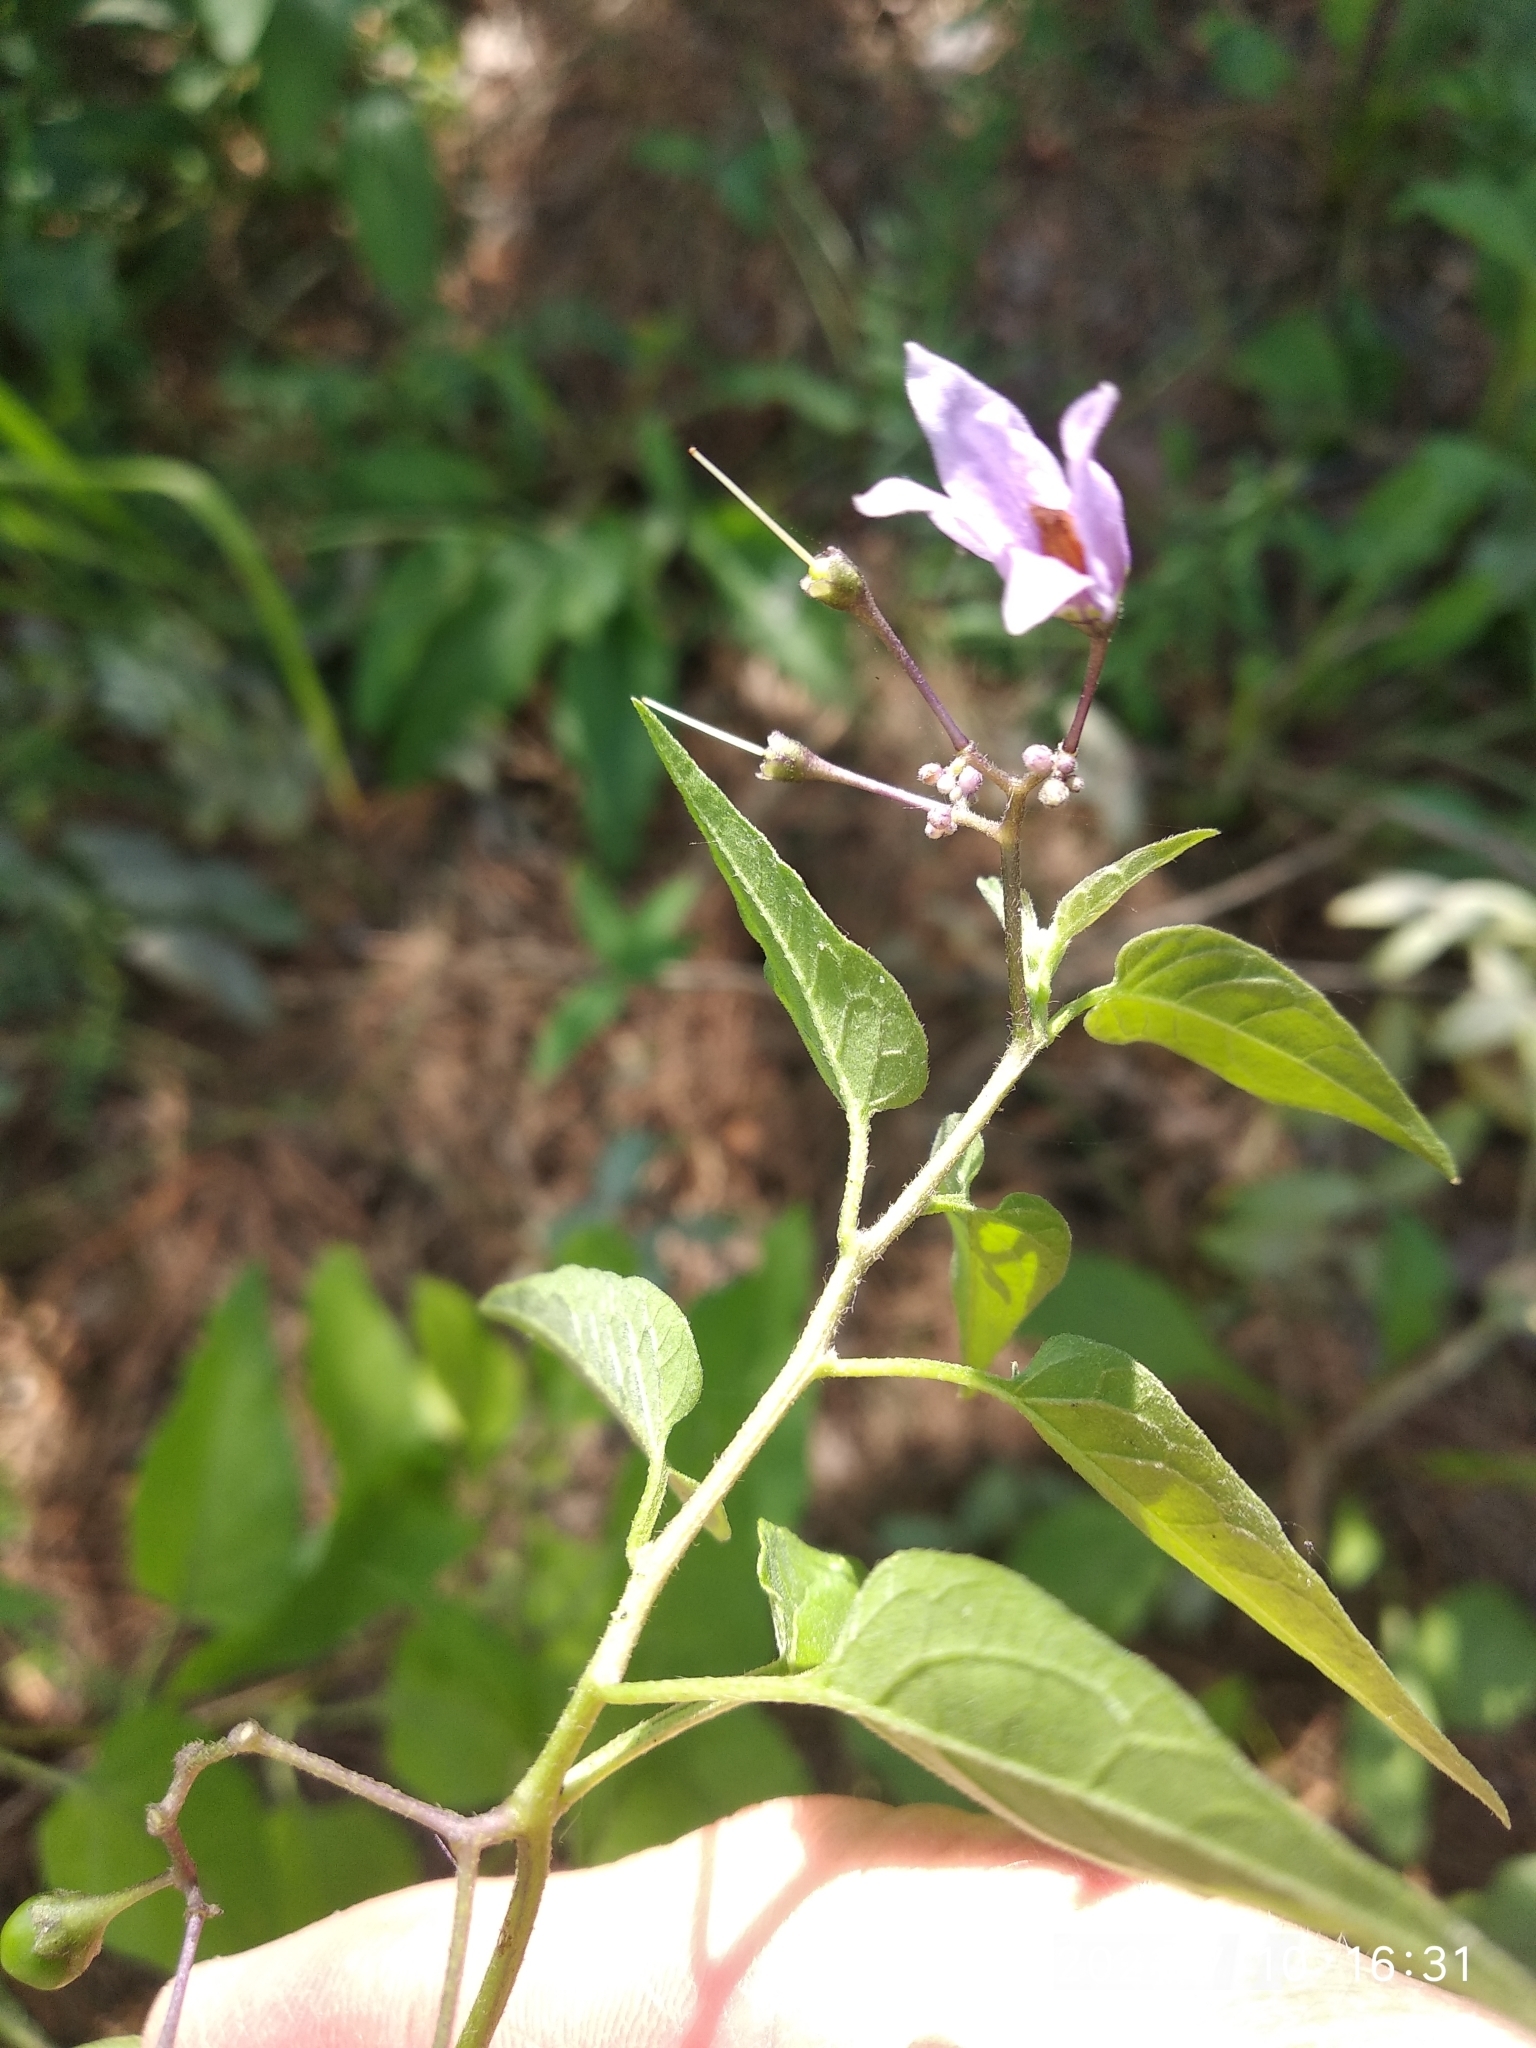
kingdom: Plantae
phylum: Tracheophyta
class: Magnoliopsida
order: Solanales
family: Solanaceae
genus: Solanum
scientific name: Solanum dulcamara
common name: Climbing nightshade
